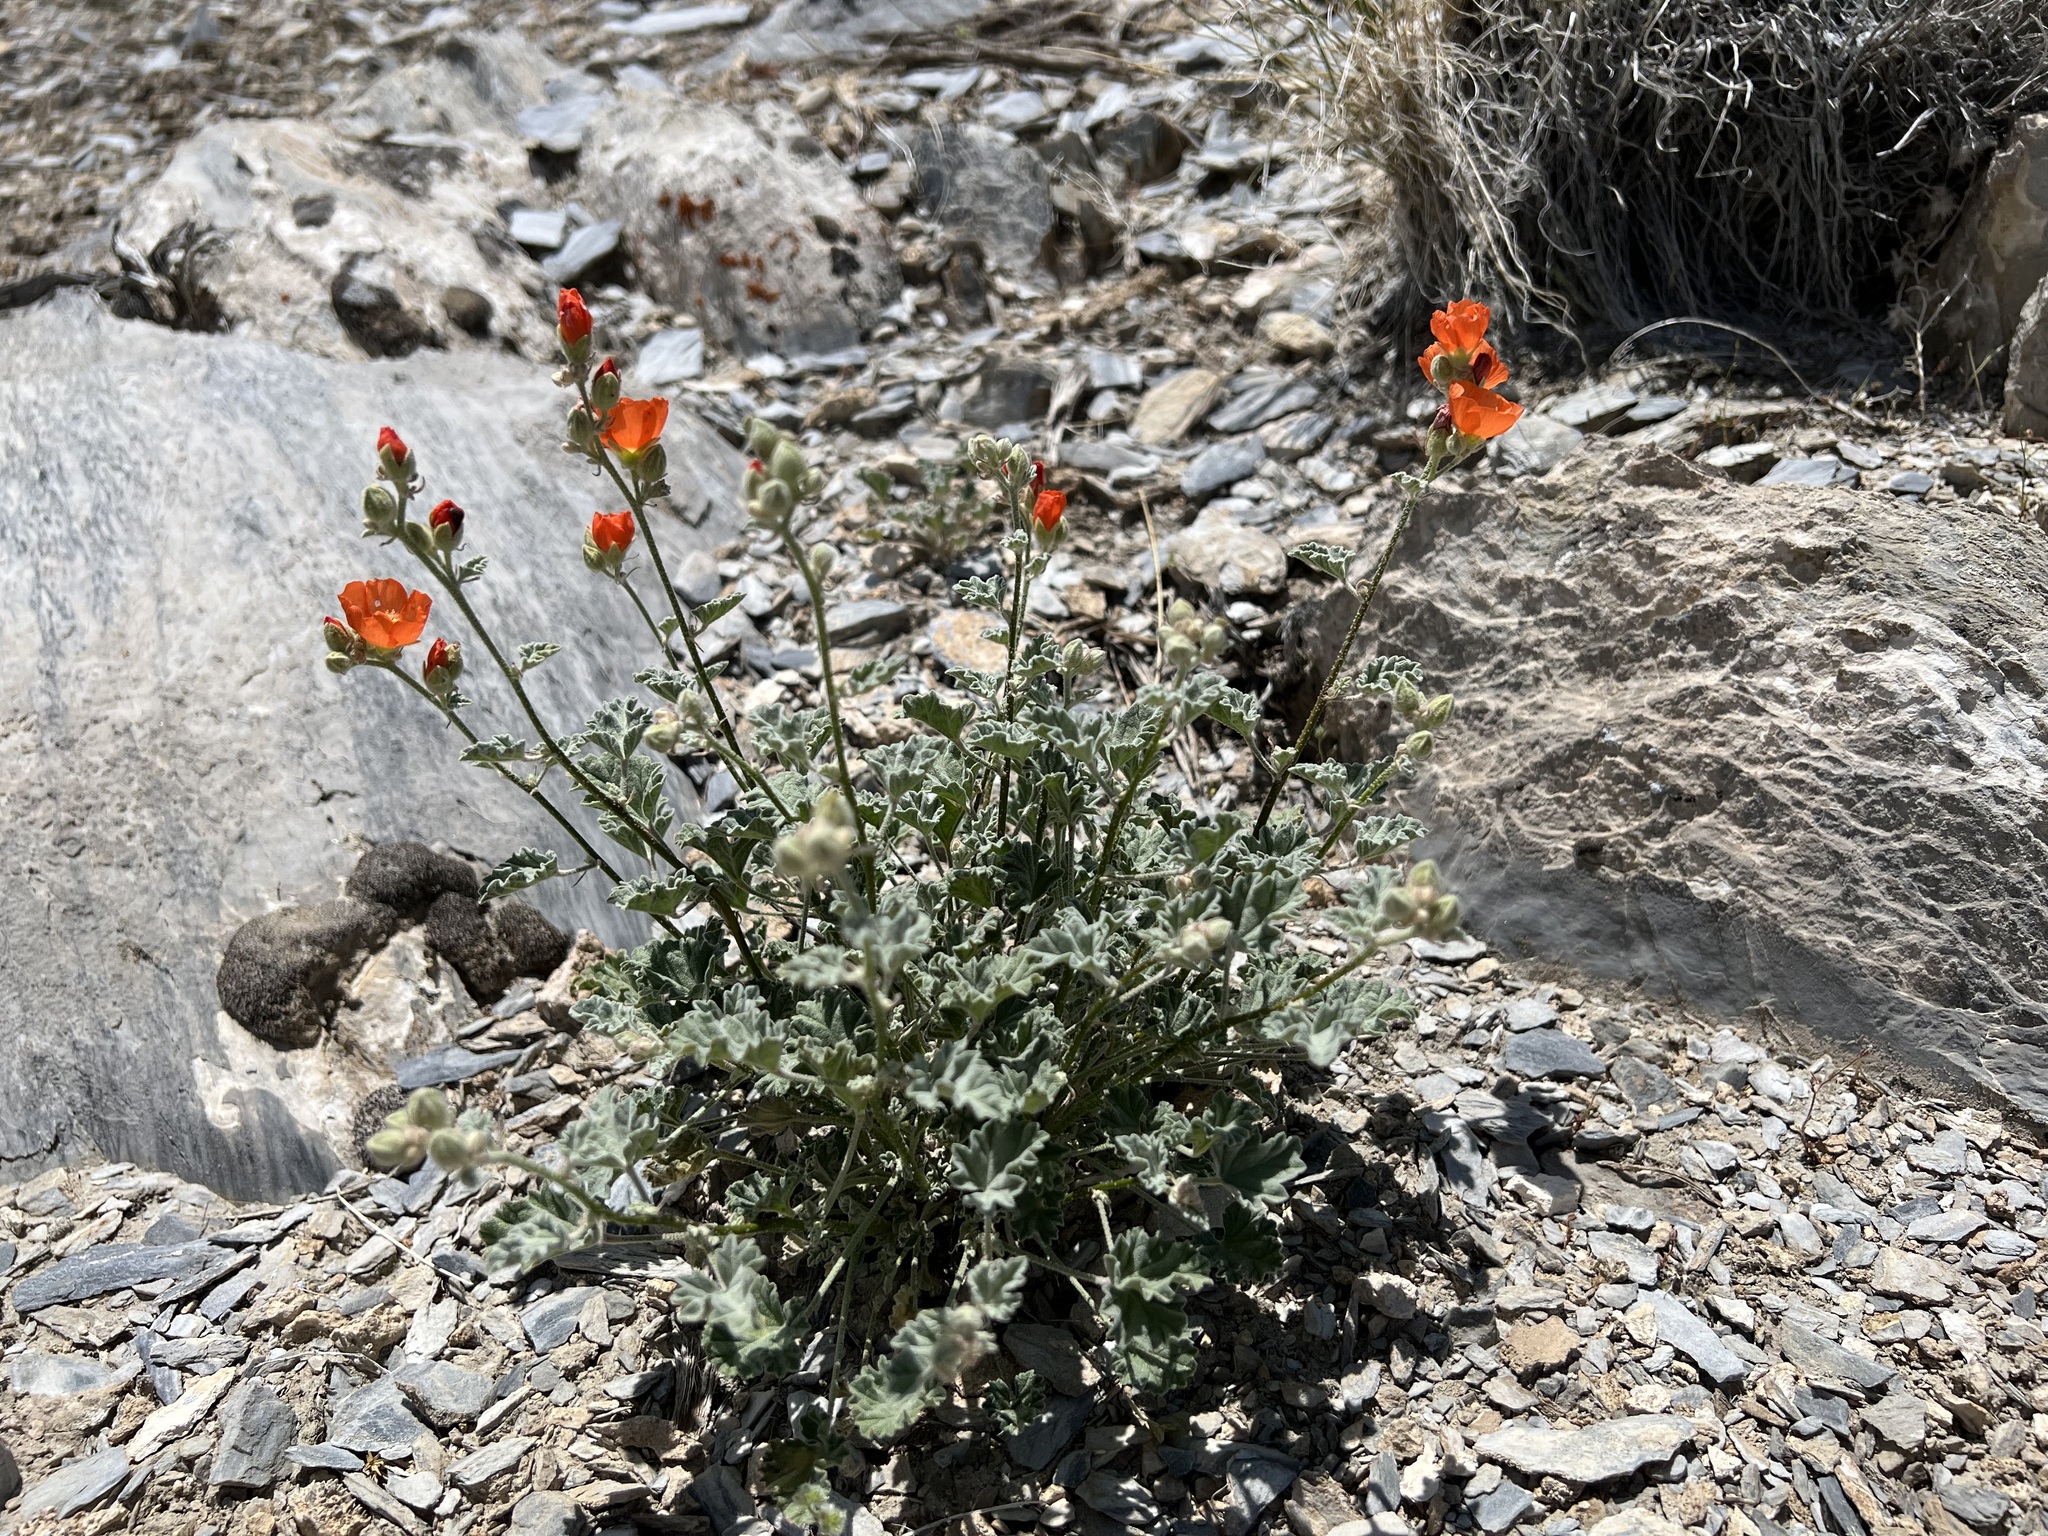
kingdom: Plantae
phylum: Tracheophyta
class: Magnoliopsida
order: Malvales
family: Malvaceae
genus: Sphaeralcea
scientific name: Sphaeralcea ambigua
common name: Apricot globe-mallow
